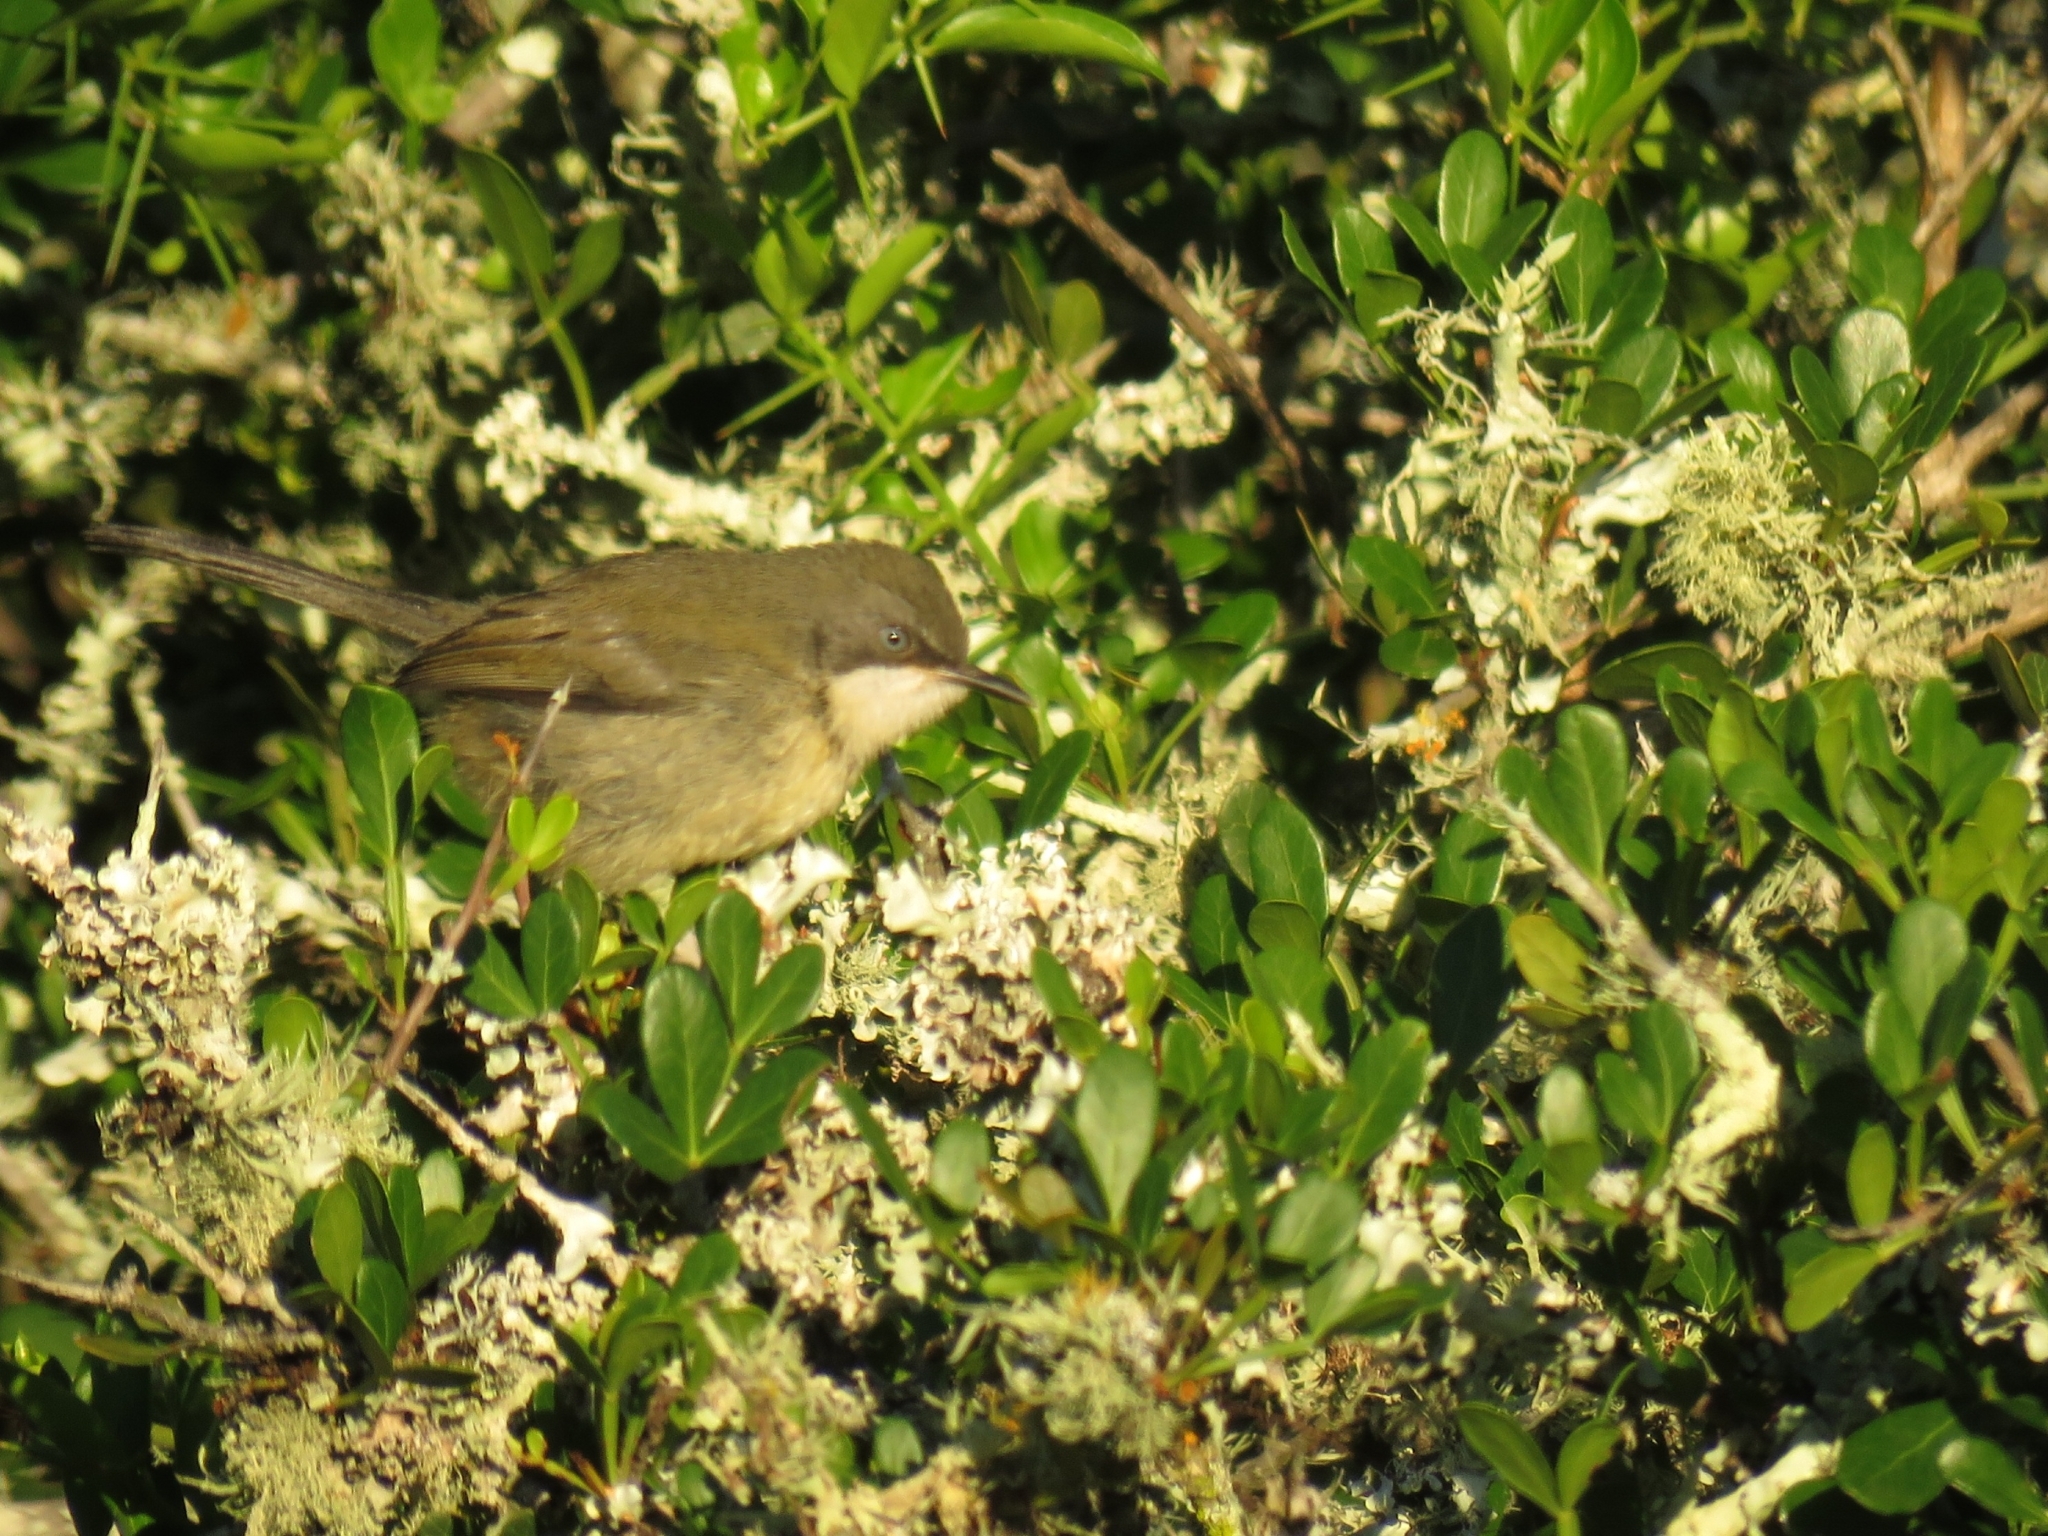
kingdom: Animalia
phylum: Chordata
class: Aves
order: Passeriformes
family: Cisticolidae
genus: Apalis
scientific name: Apalis thoracica
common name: Bar-throated apalis
